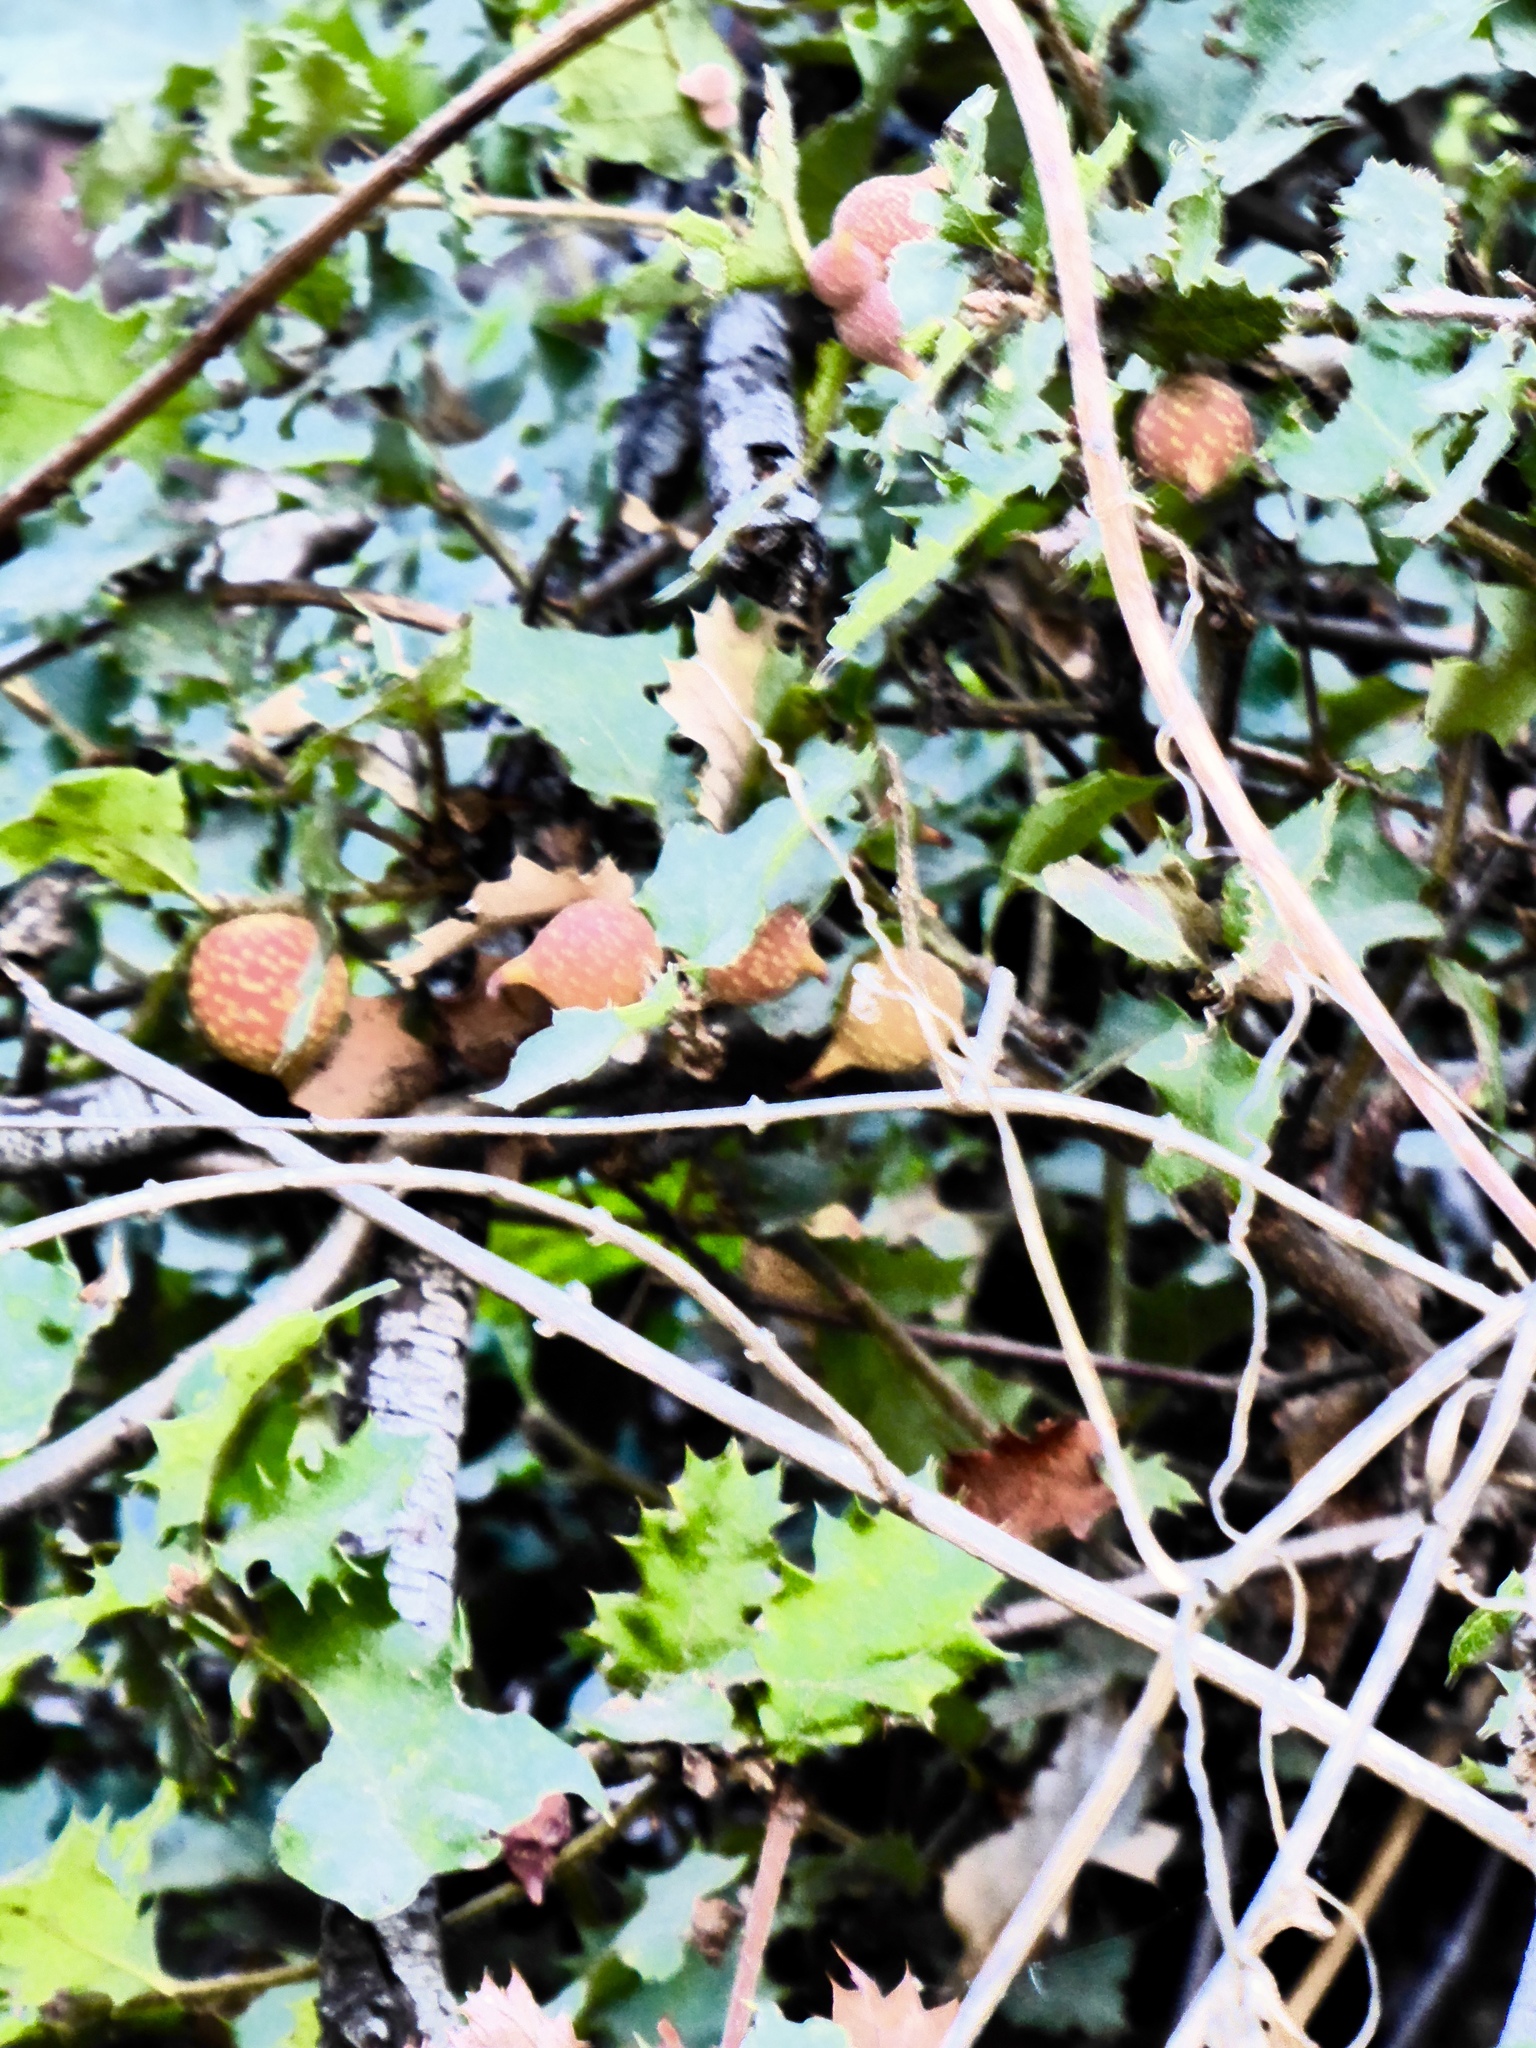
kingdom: Animalia
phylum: Arthropoda
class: Insecta
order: Hymenoptera
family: Cynipidae
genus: Burnettweldia
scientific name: Burnettweldia
